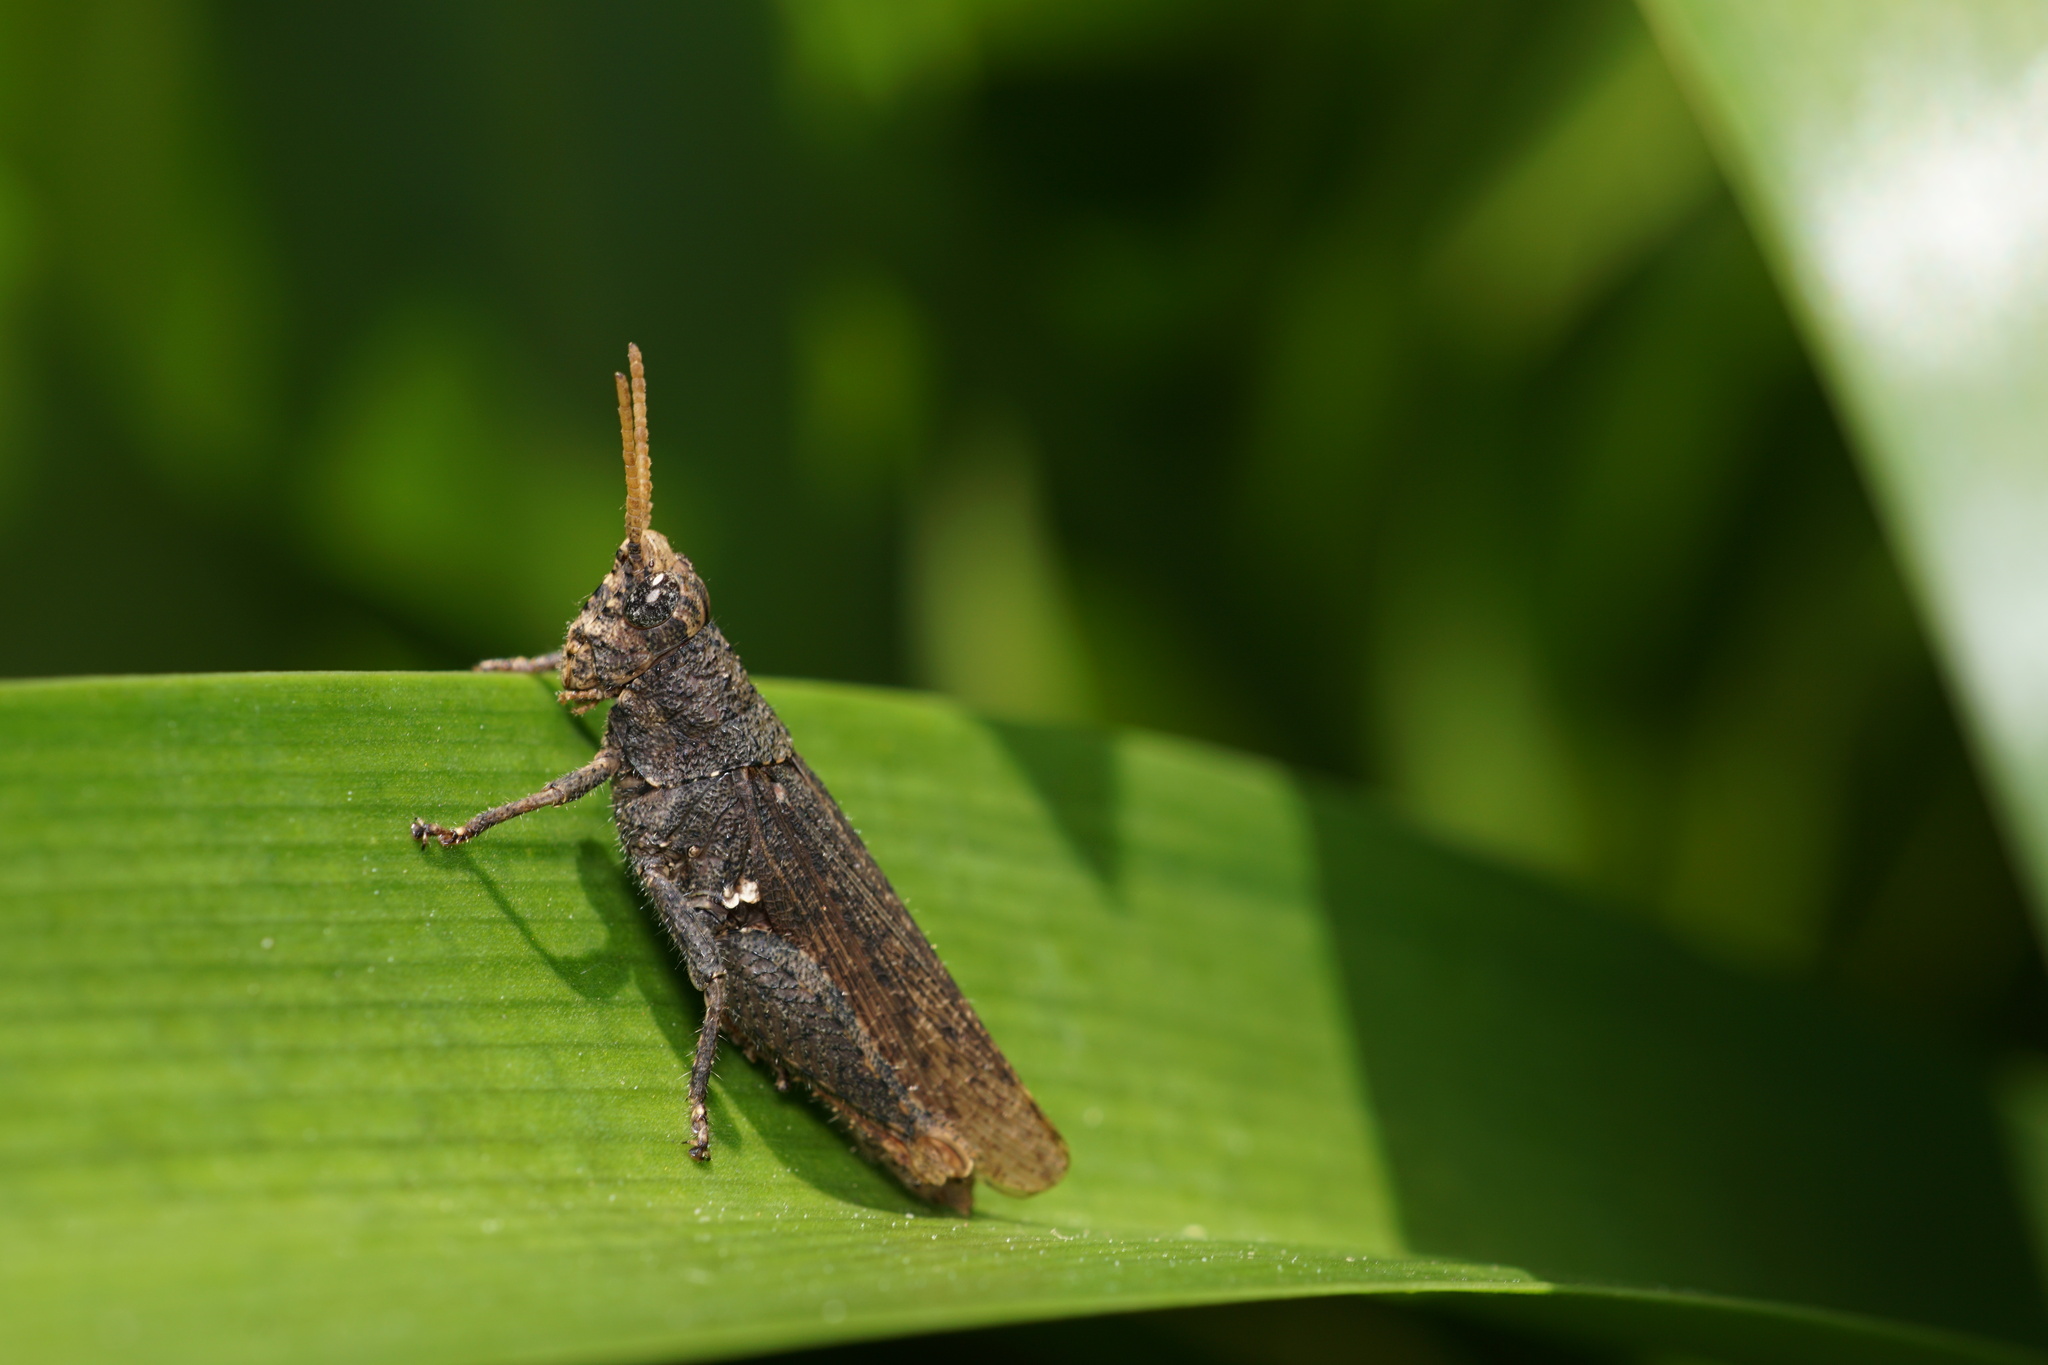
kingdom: Animalia
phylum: Arthropoda
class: Insecta
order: Orthoptera
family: Acrididae
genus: Vilerna
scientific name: Vilerna rugulosa
